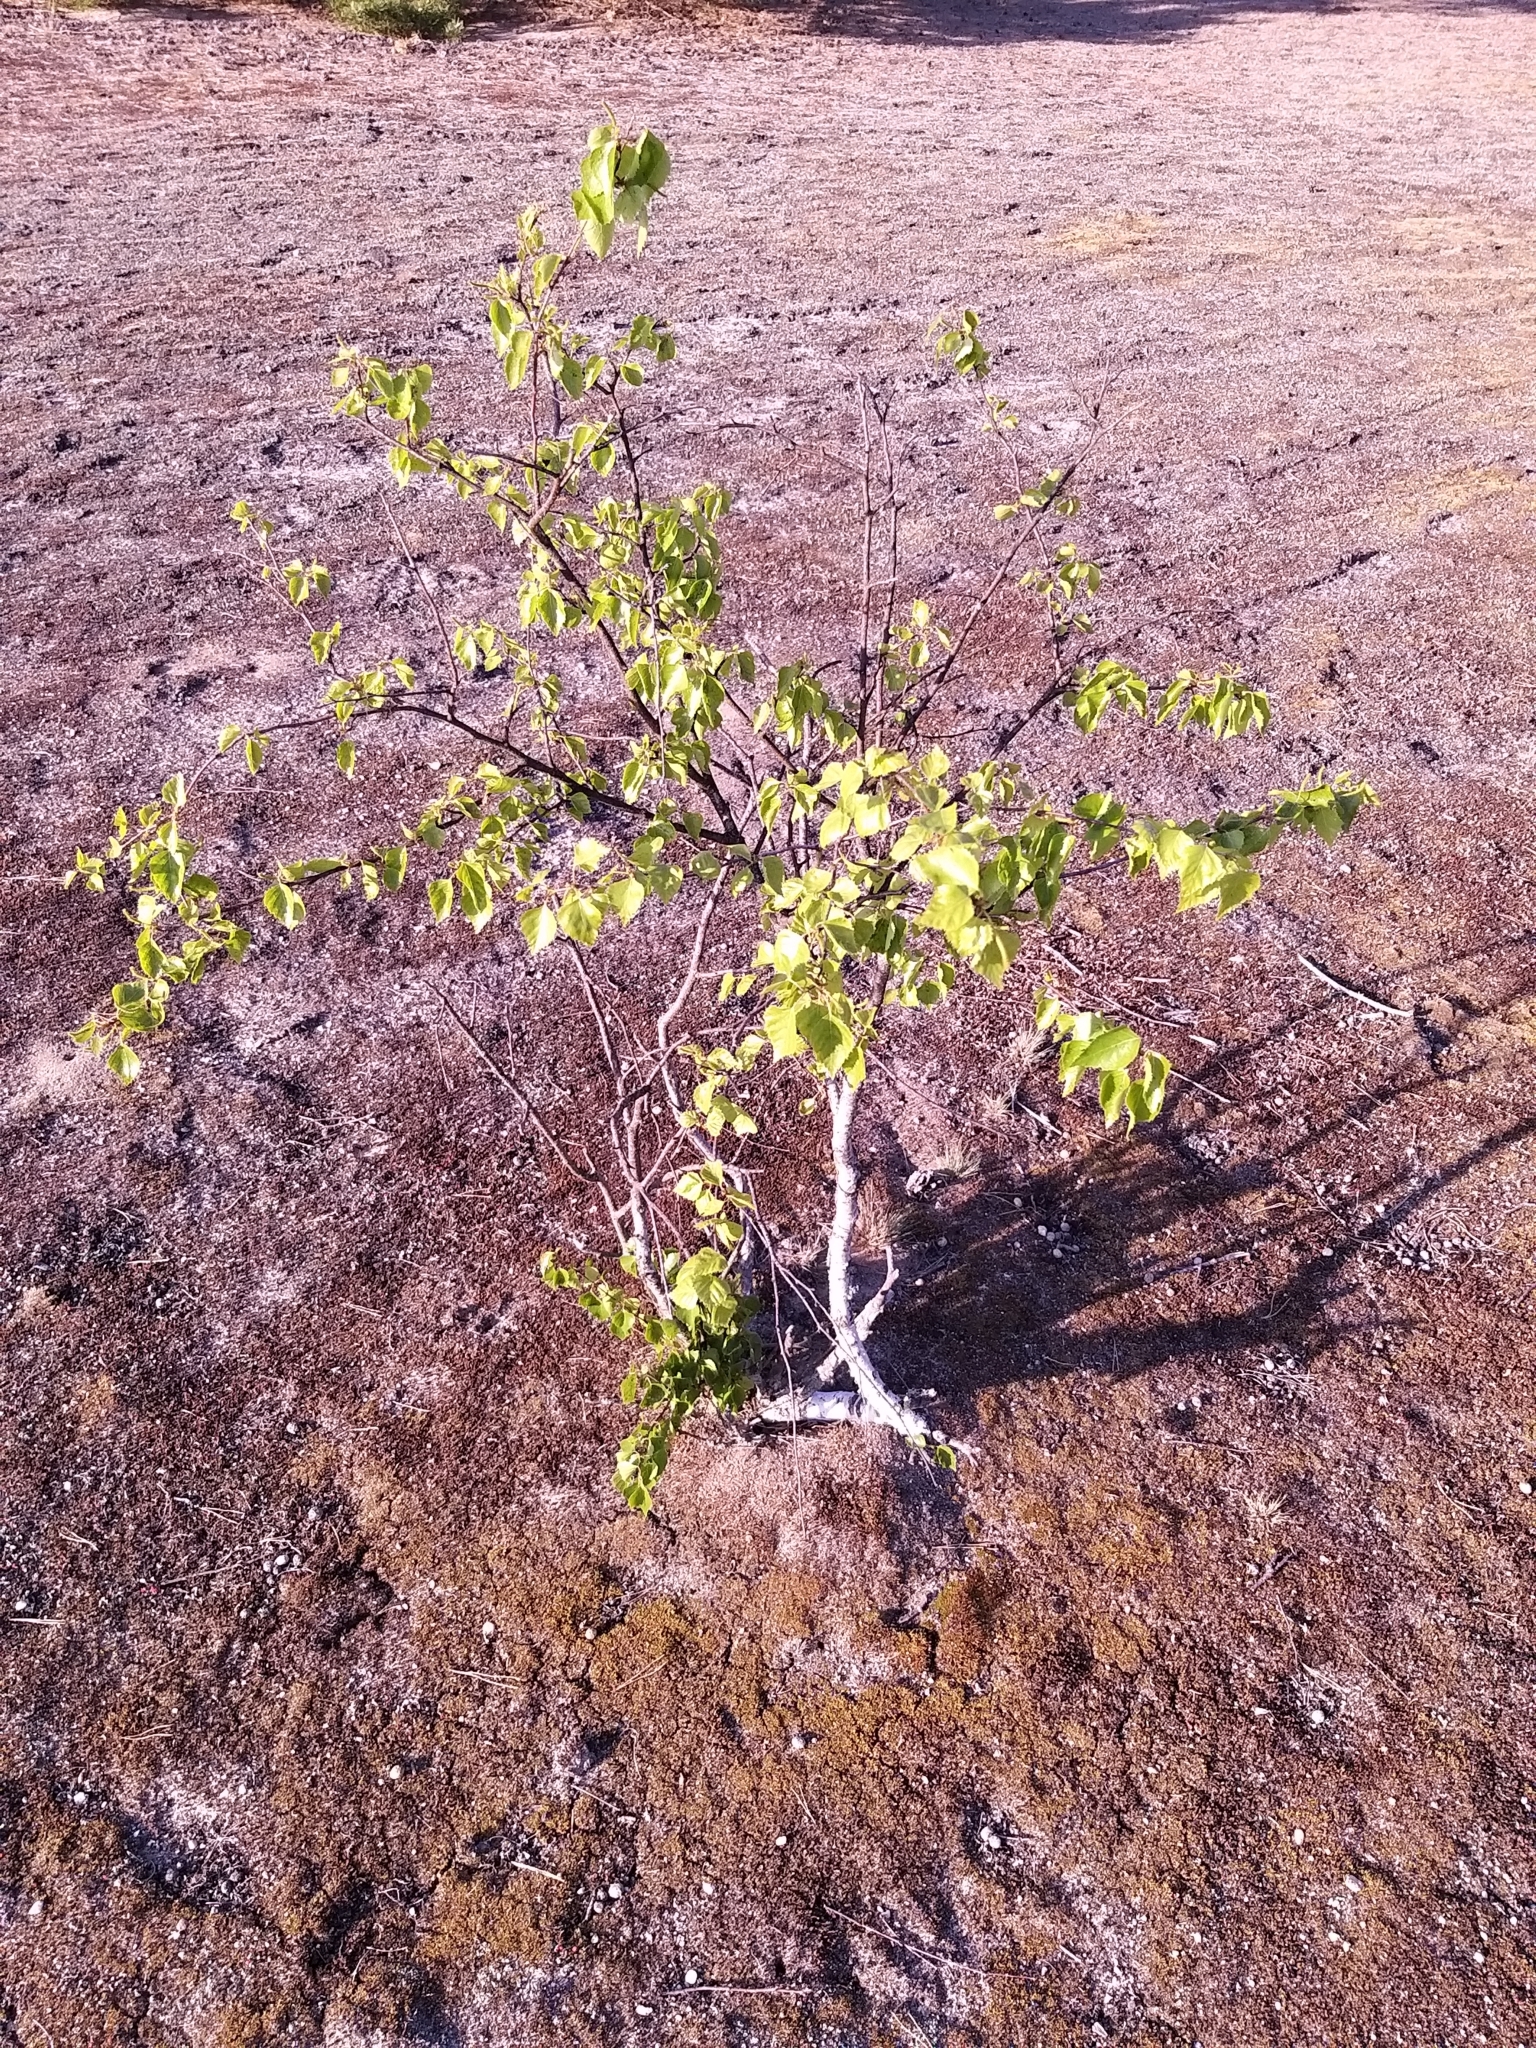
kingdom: Plantae
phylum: Tracheophyta
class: Magnoliopsida
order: Fagales
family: Betulaceae
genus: Betula
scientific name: Betula pendula
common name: Silver birch
